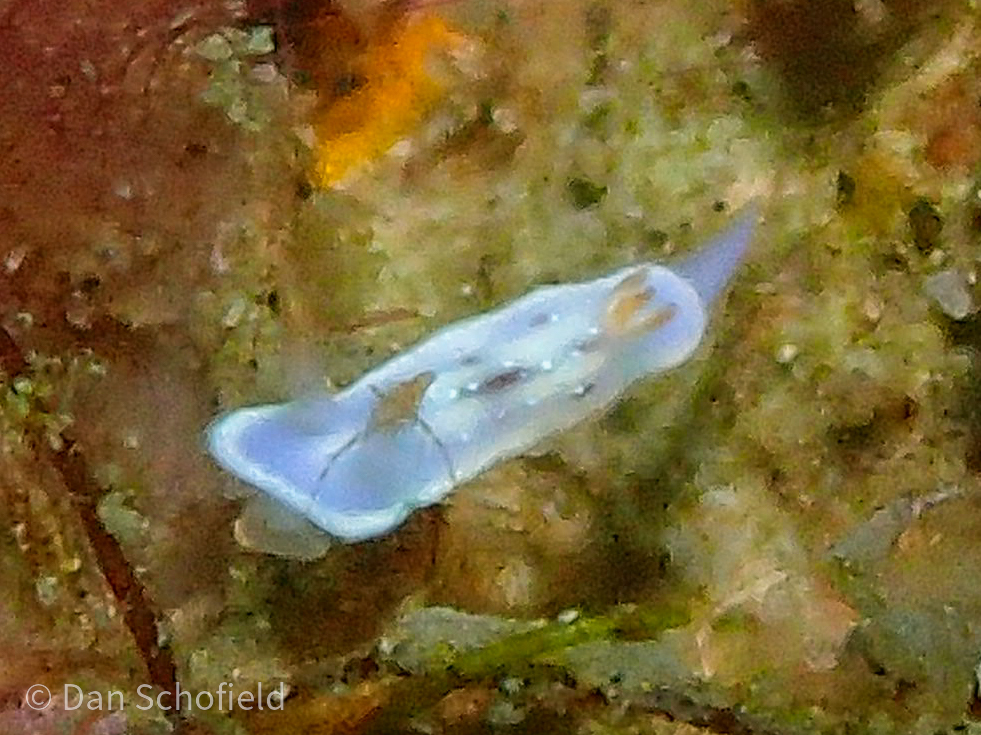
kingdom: Animalia
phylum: Mollusca
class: Gastropoda
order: Nudibranchia
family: Chromodorididae
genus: Hypselodoris
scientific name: Hypselodoris krakatoa
